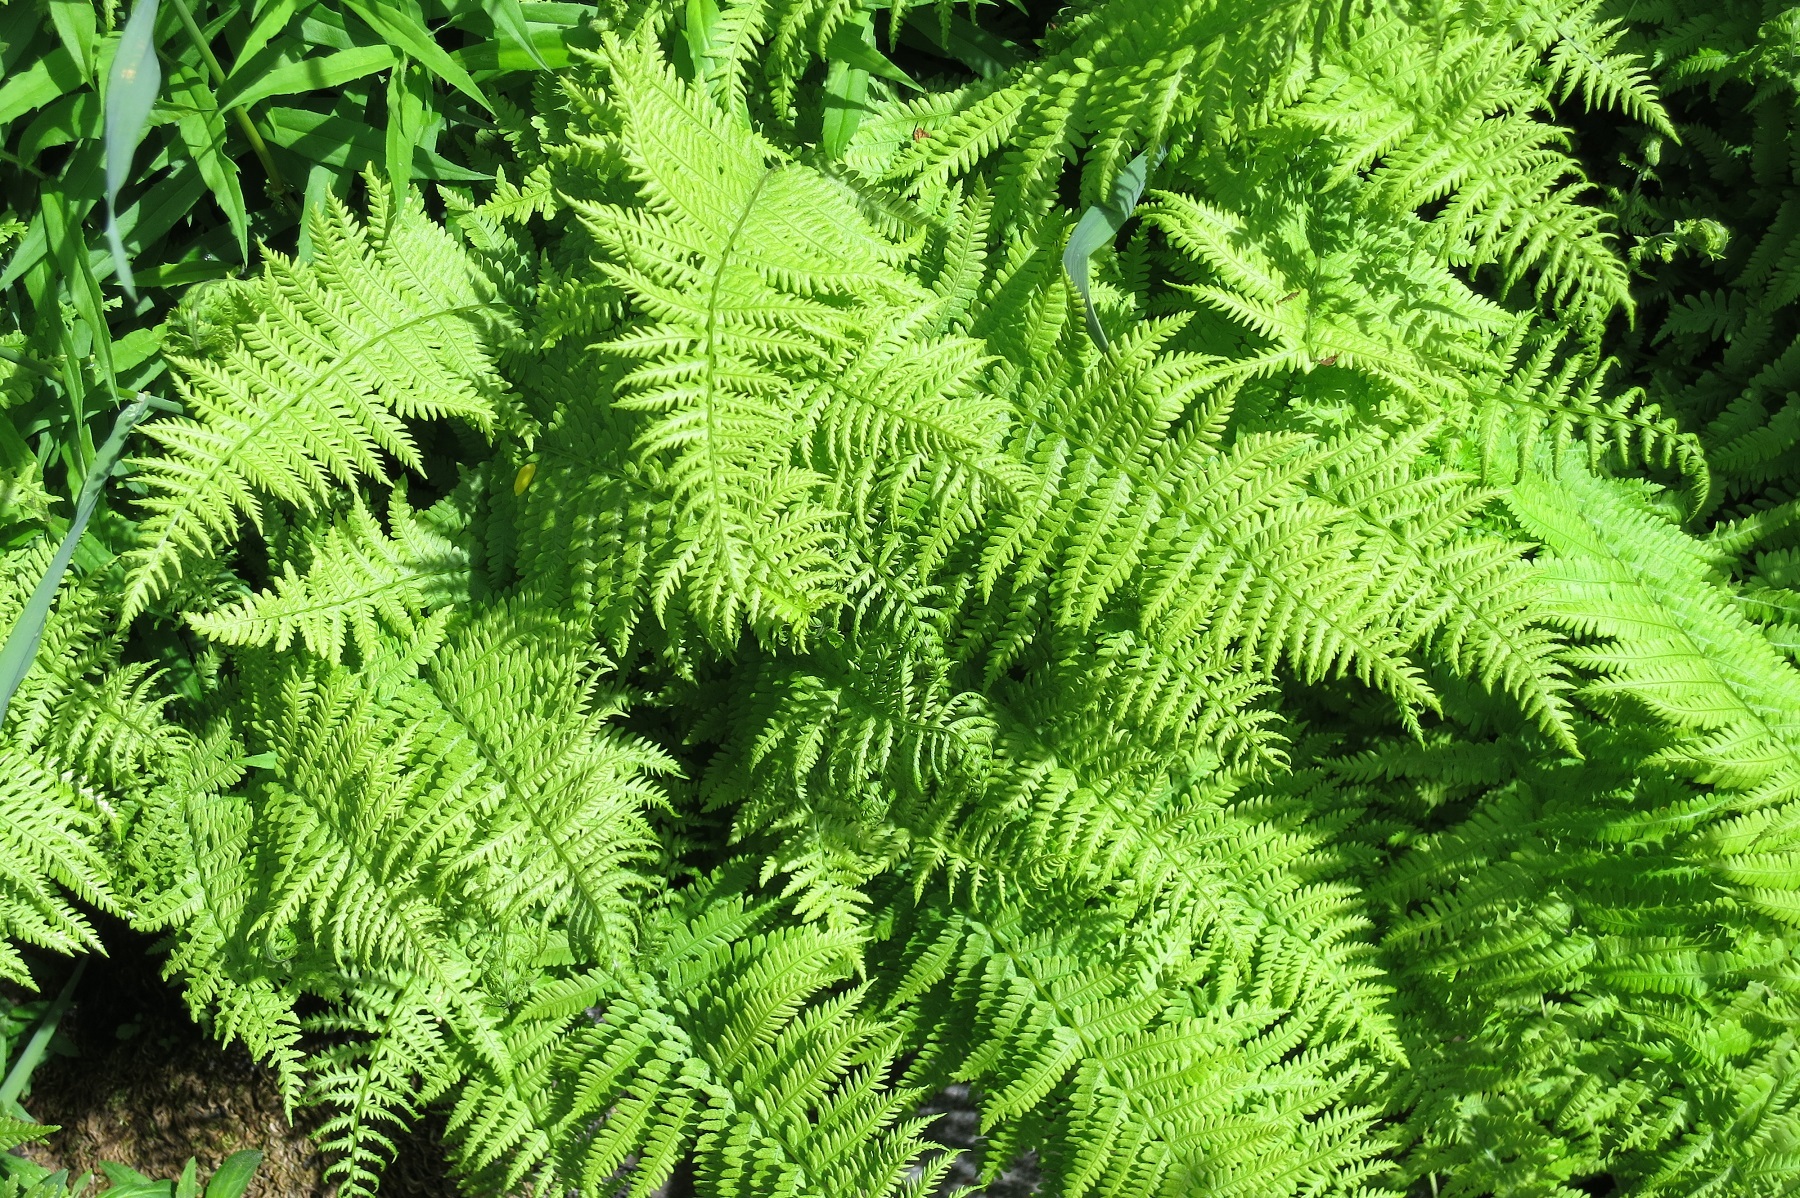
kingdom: Plantae
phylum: Tracheophyta
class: Polypodiopsida
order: Polypodiales
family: Thelypteridaceae
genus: Amauropelta
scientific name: Amauropelta nevadensis
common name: Nevada marsh fern
